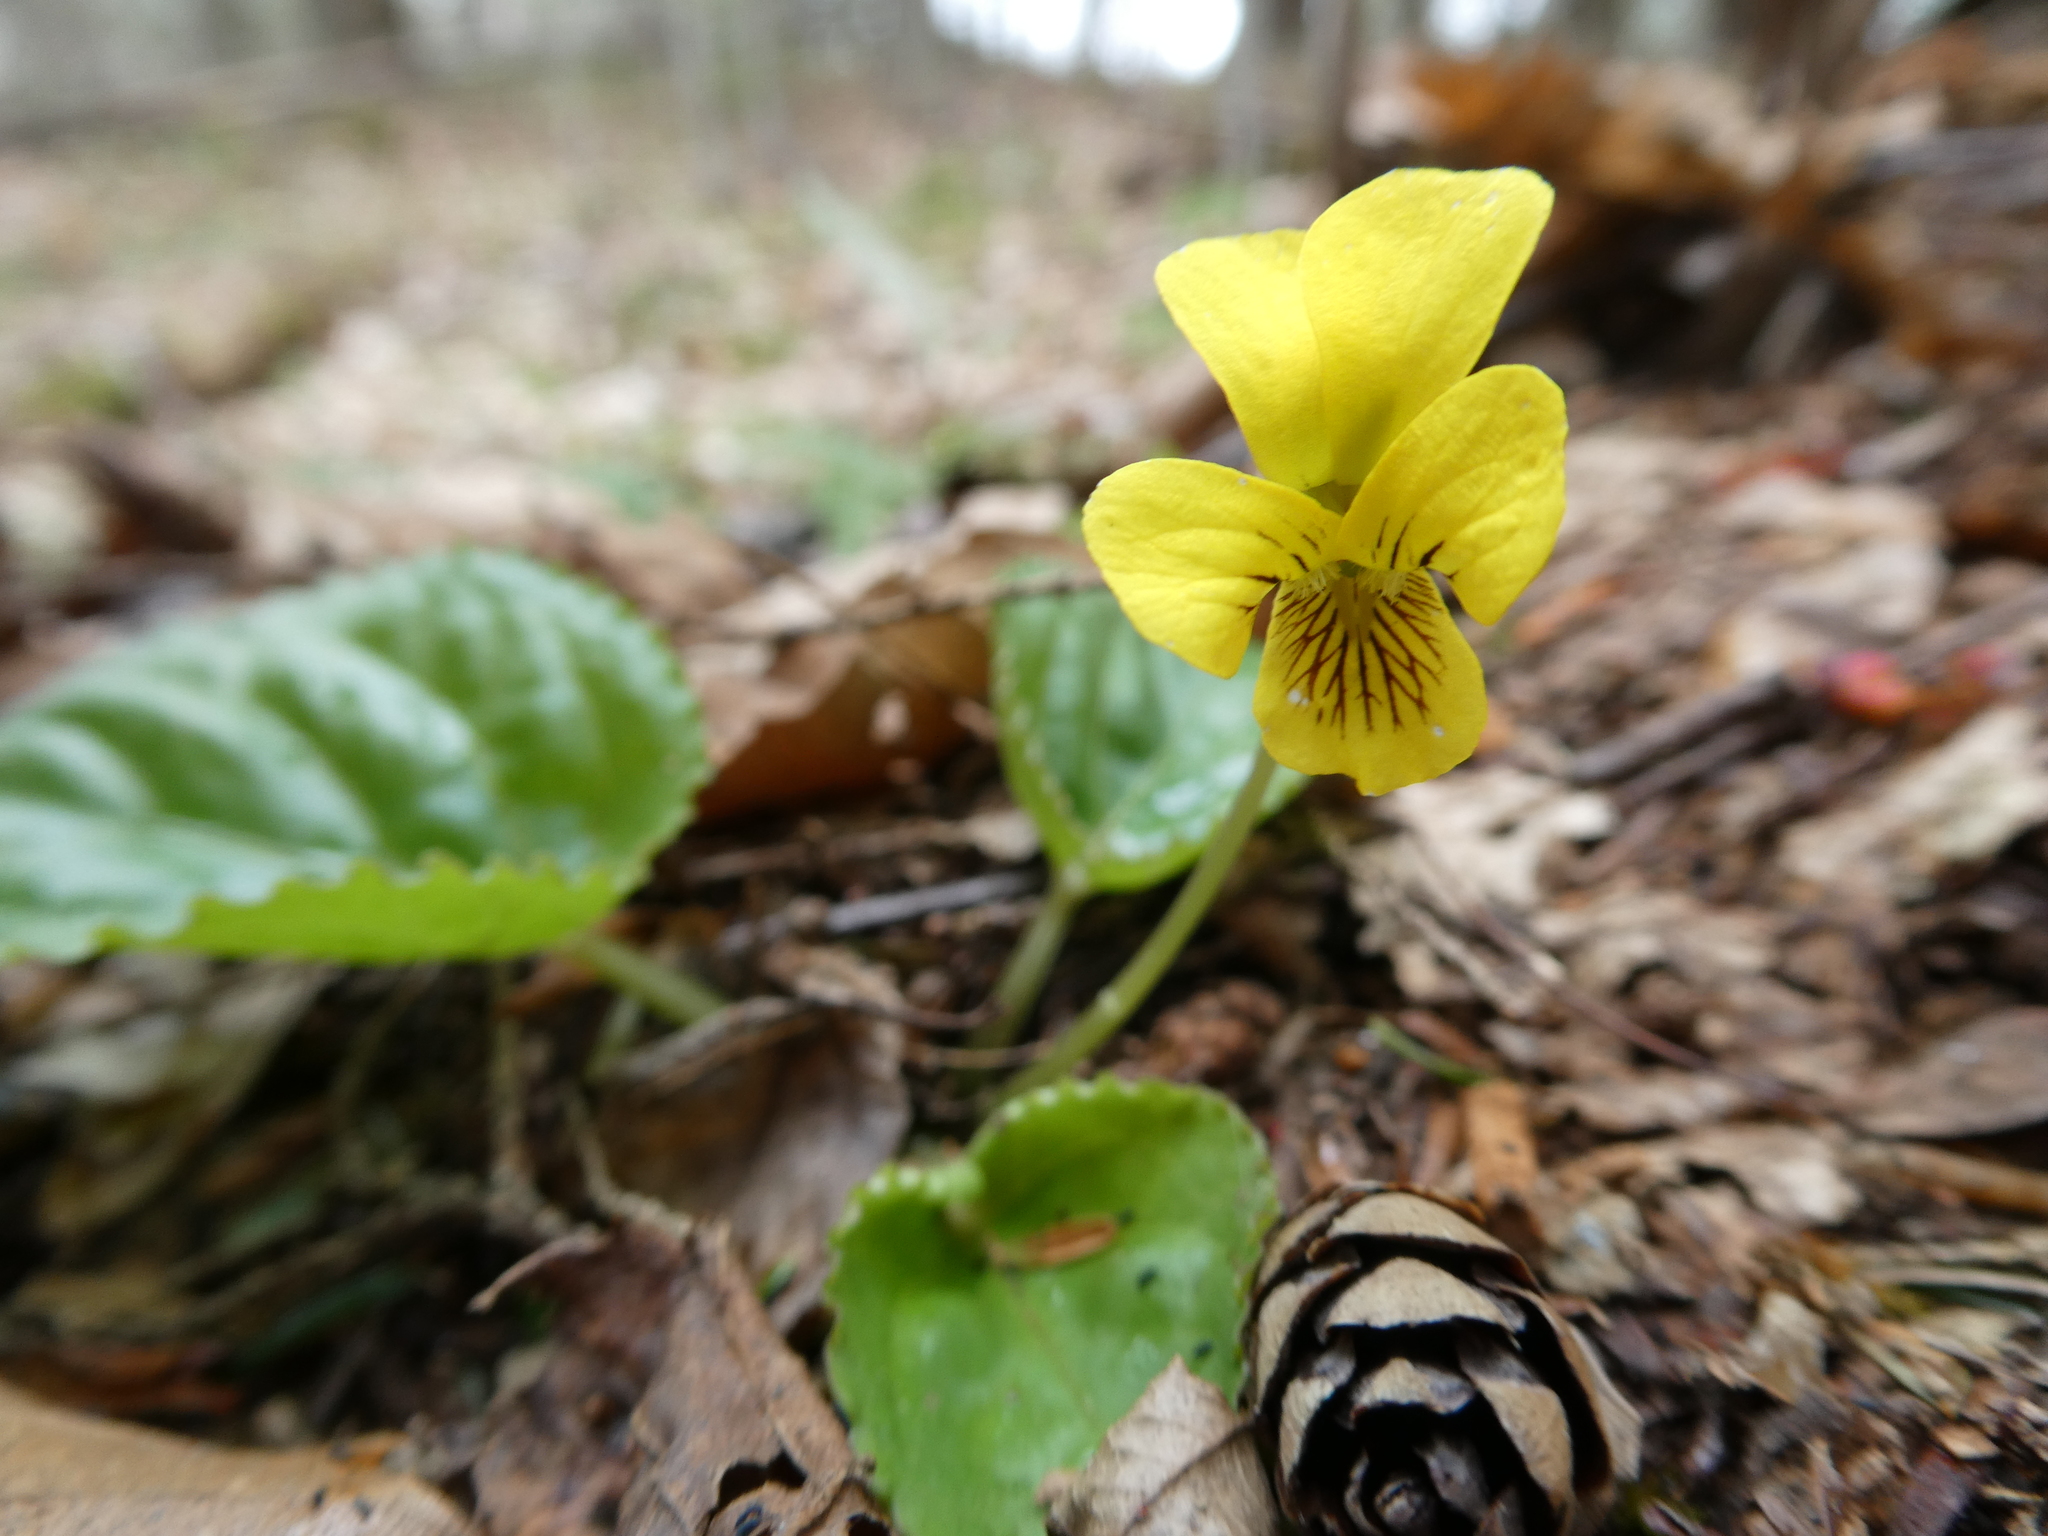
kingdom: Plantae
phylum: Tracheophyta
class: Magnoliopsida
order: Malpighiales
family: Violaceae
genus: Viola
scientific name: Viola rotundifolia
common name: Early yellow violet
